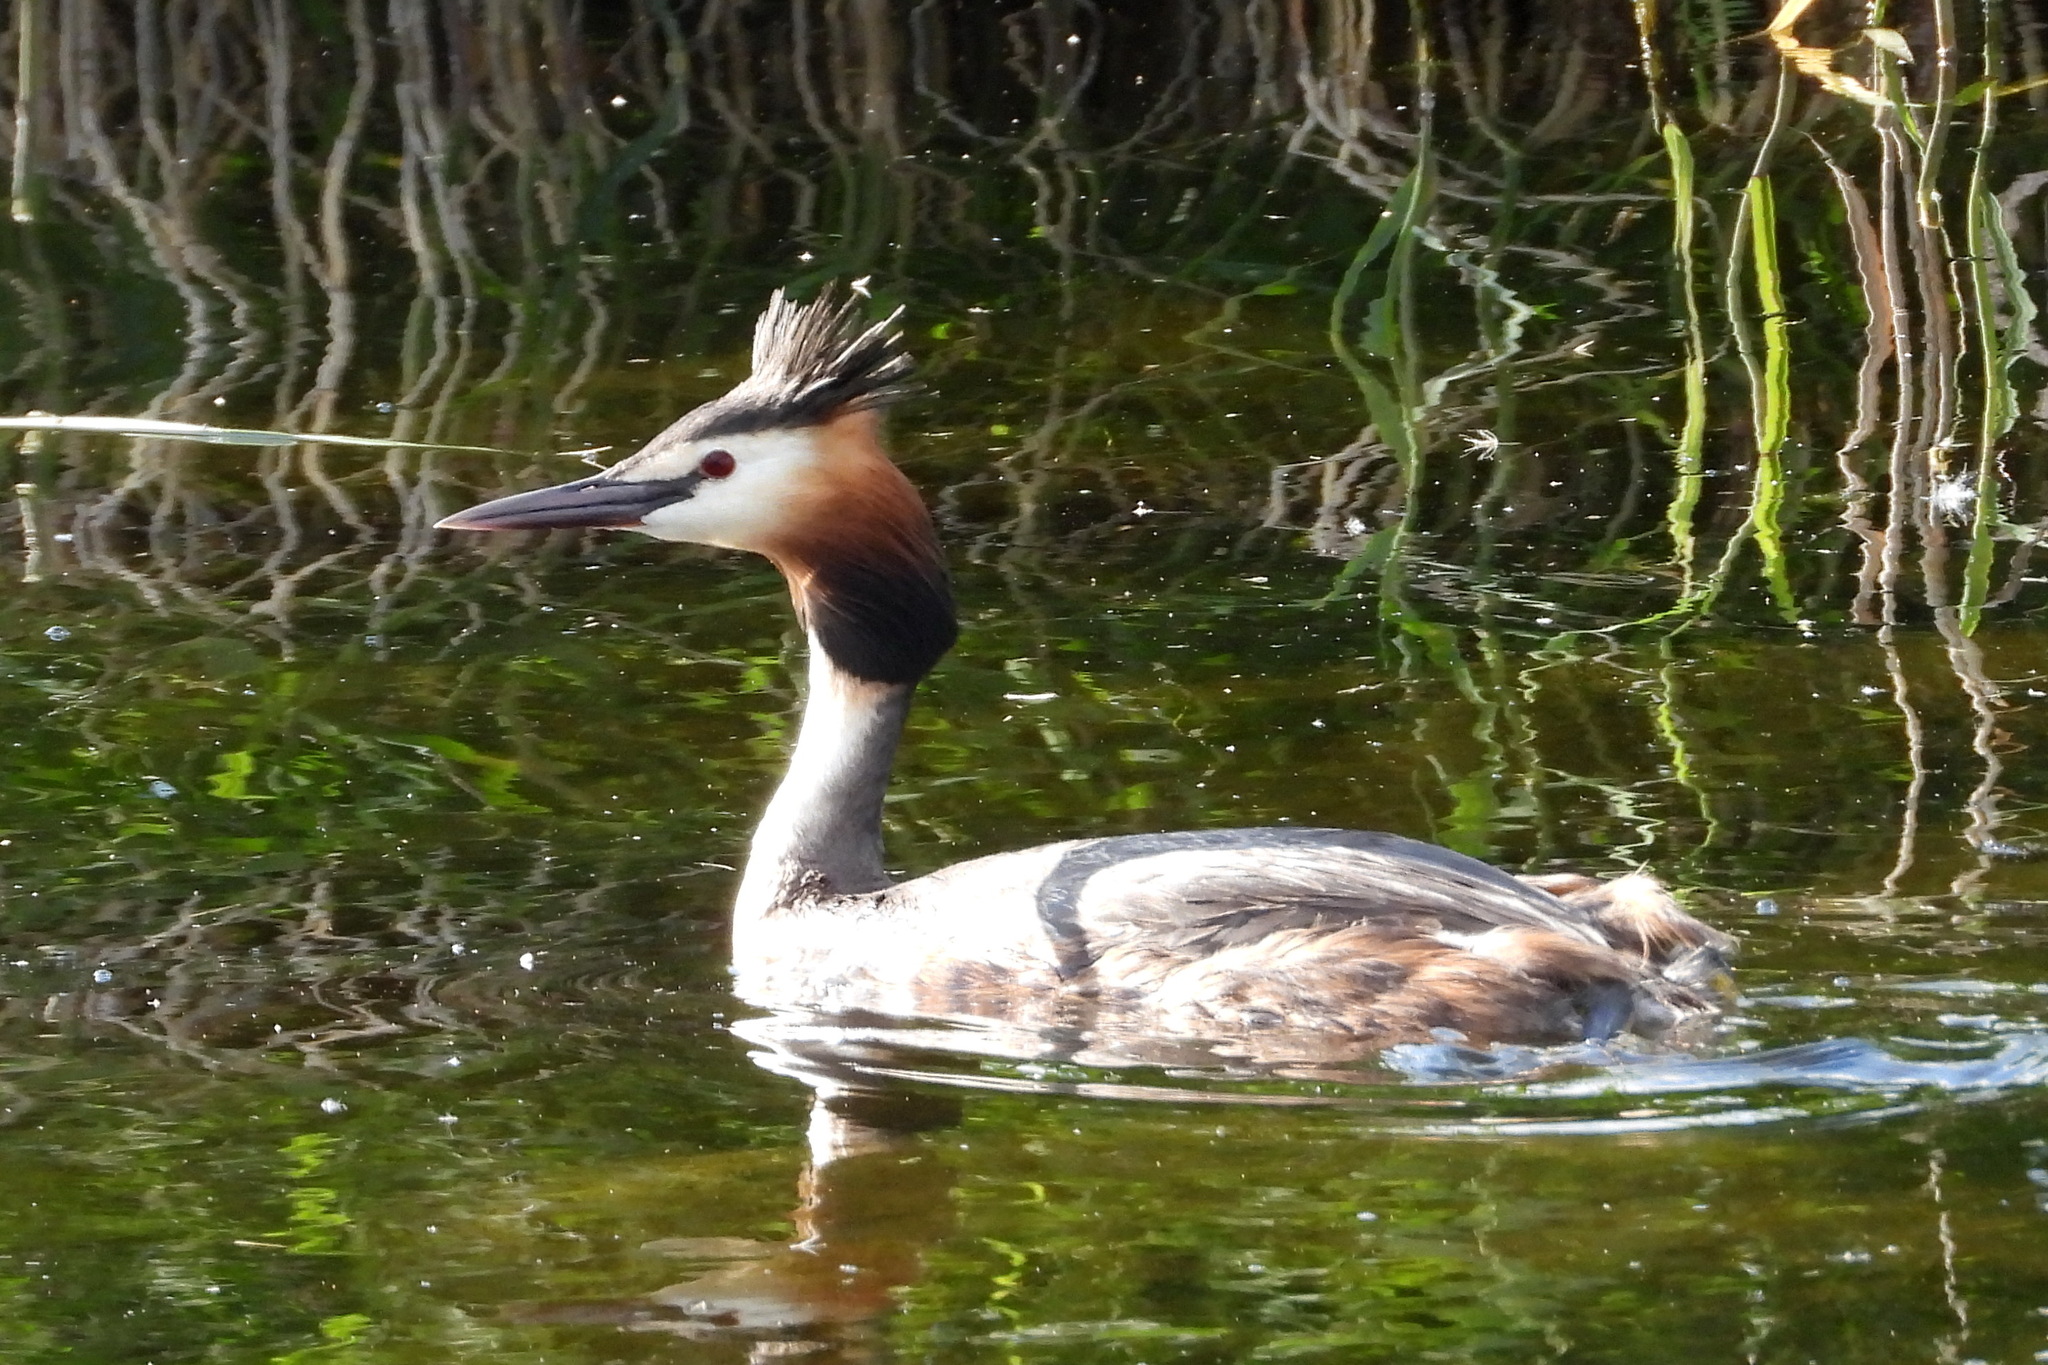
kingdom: Animalia
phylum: Chordata
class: Aves
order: Podicipediformes
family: Podicipedidae
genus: Podiceps
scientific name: Podiceps cristatus
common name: Great crested grebe
